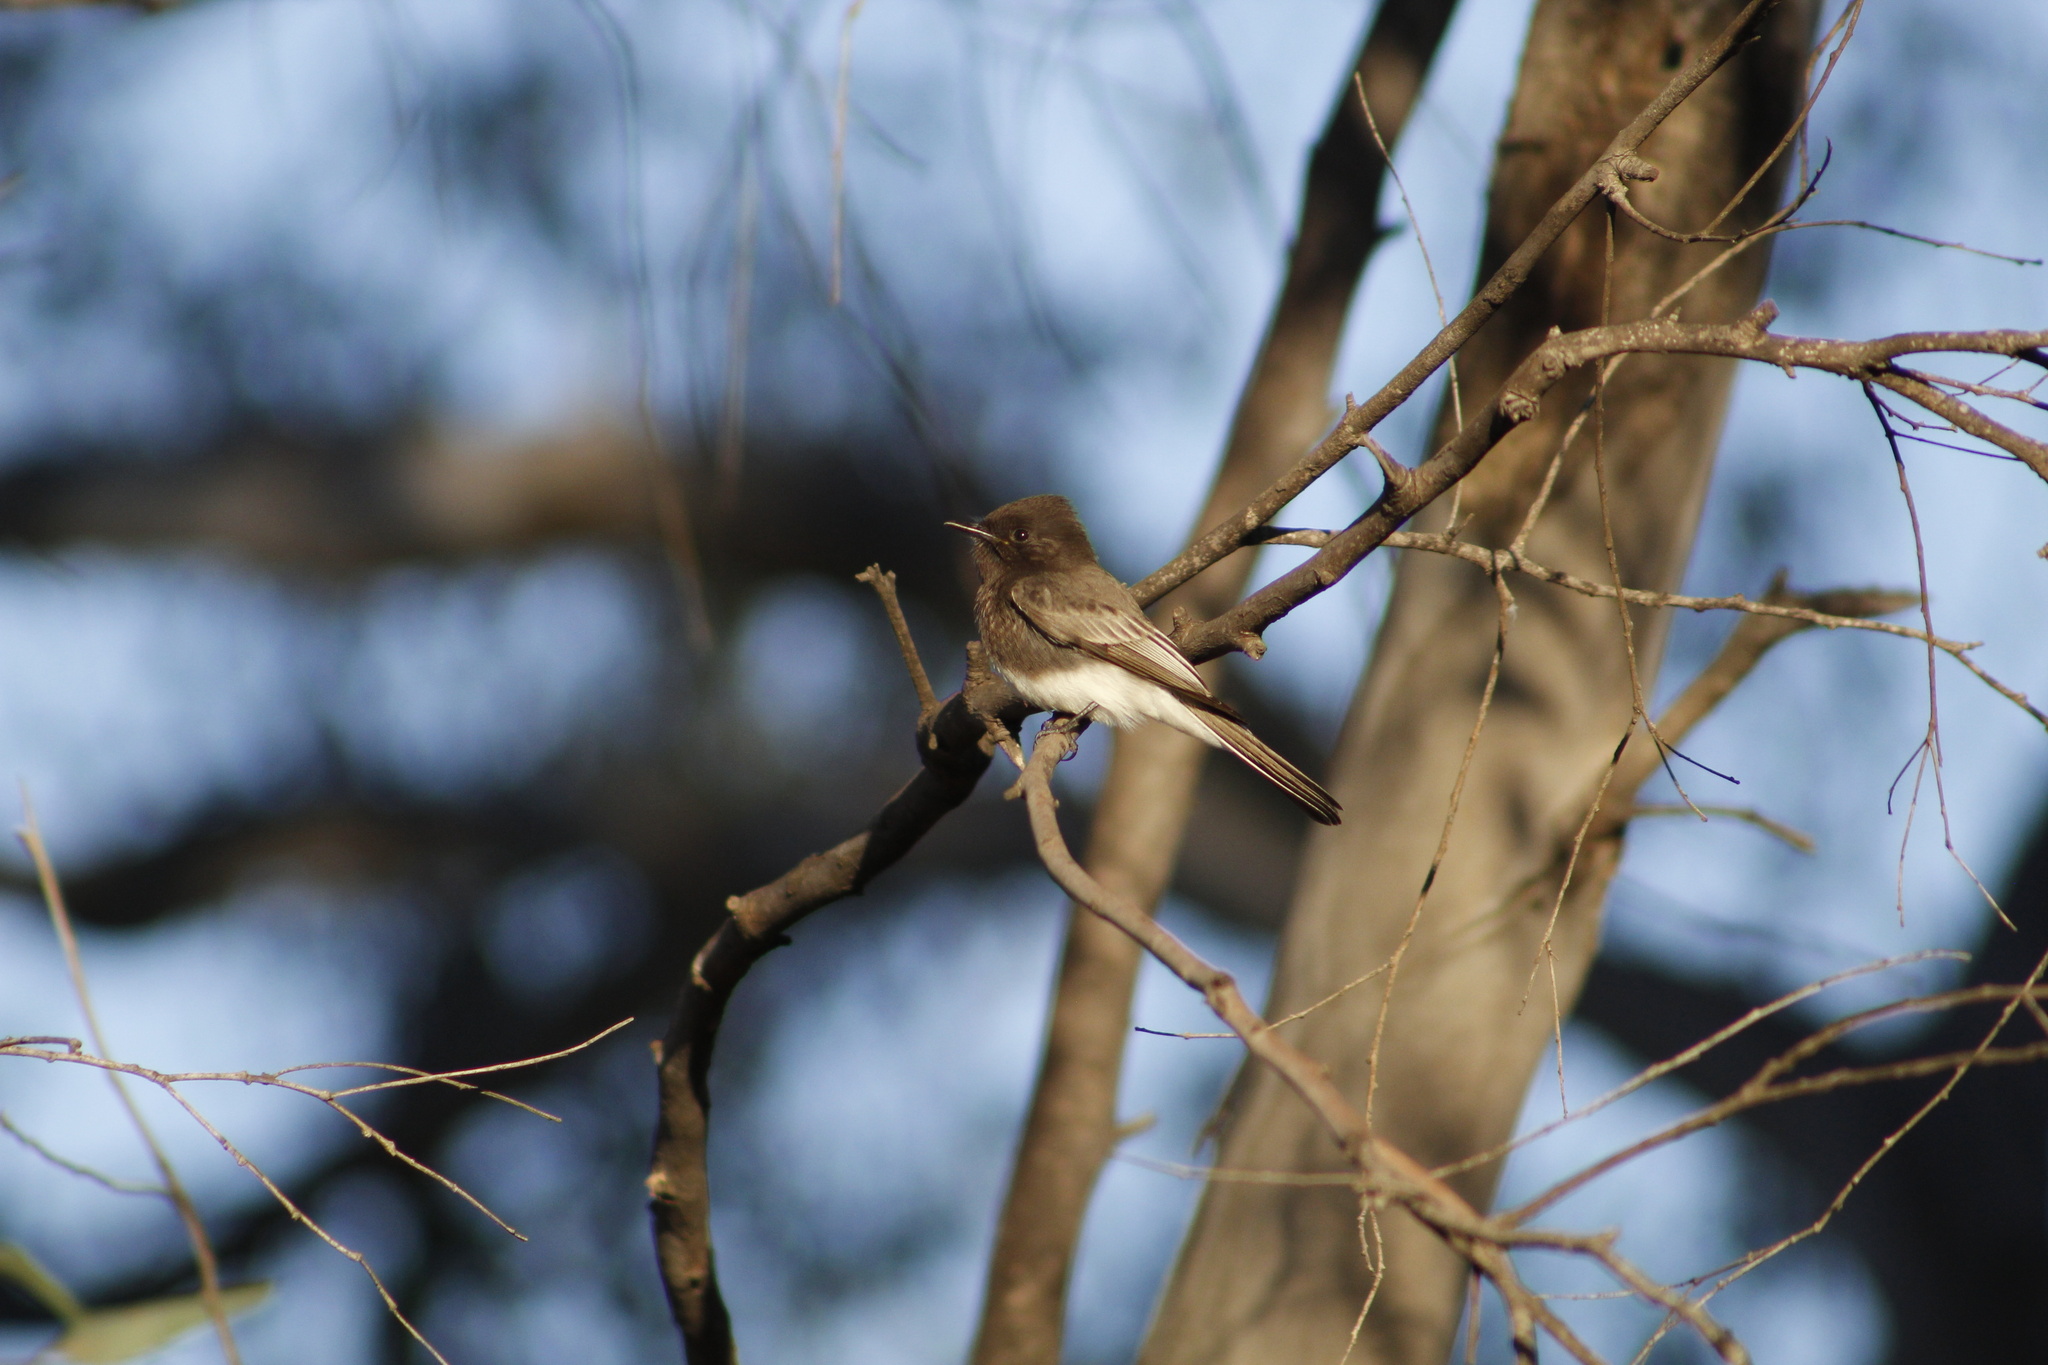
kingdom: Animalia
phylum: Chordata
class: Aves
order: Passeriformes
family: Tyrannidae
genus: Sayornis
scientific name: Sayornis nigricans
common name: Black phoebe
